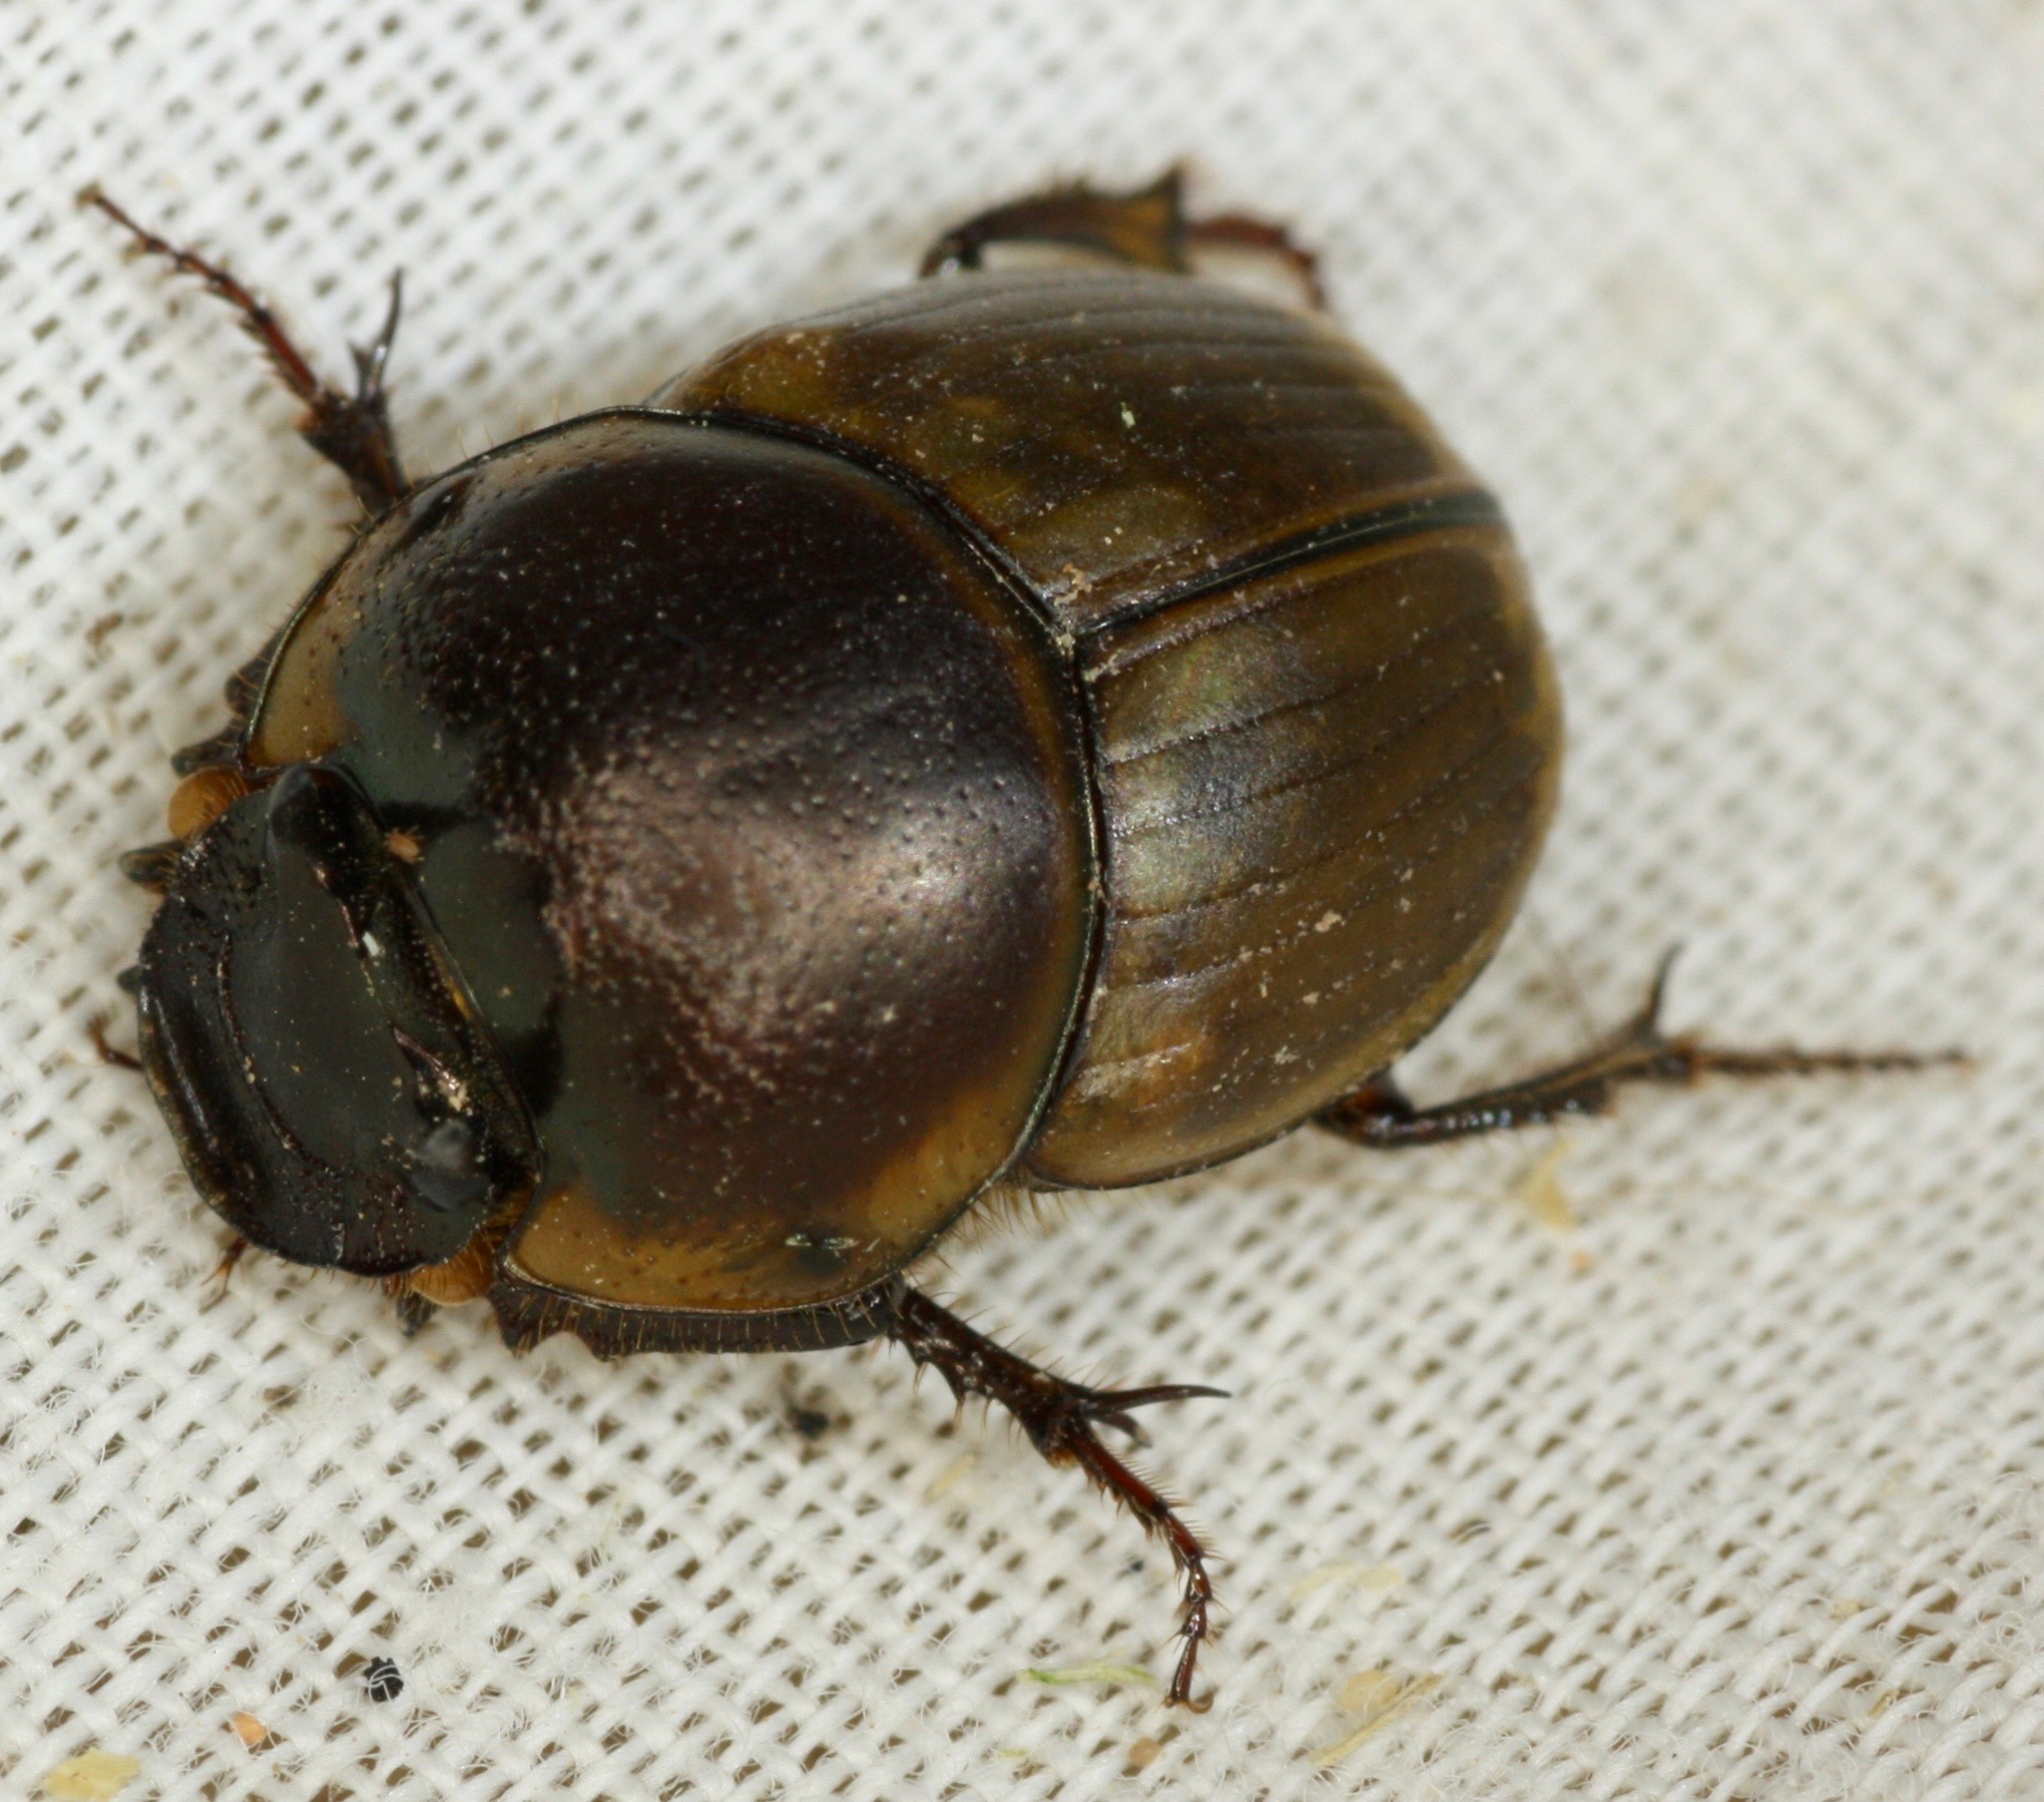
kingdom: Animalia
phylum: Arthropoda
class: Insecta
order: Coleoptera
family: Scarabaeidae
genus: Digitonthophagus
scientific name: Digitonthophagus gazella
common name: Brown dung beetle
